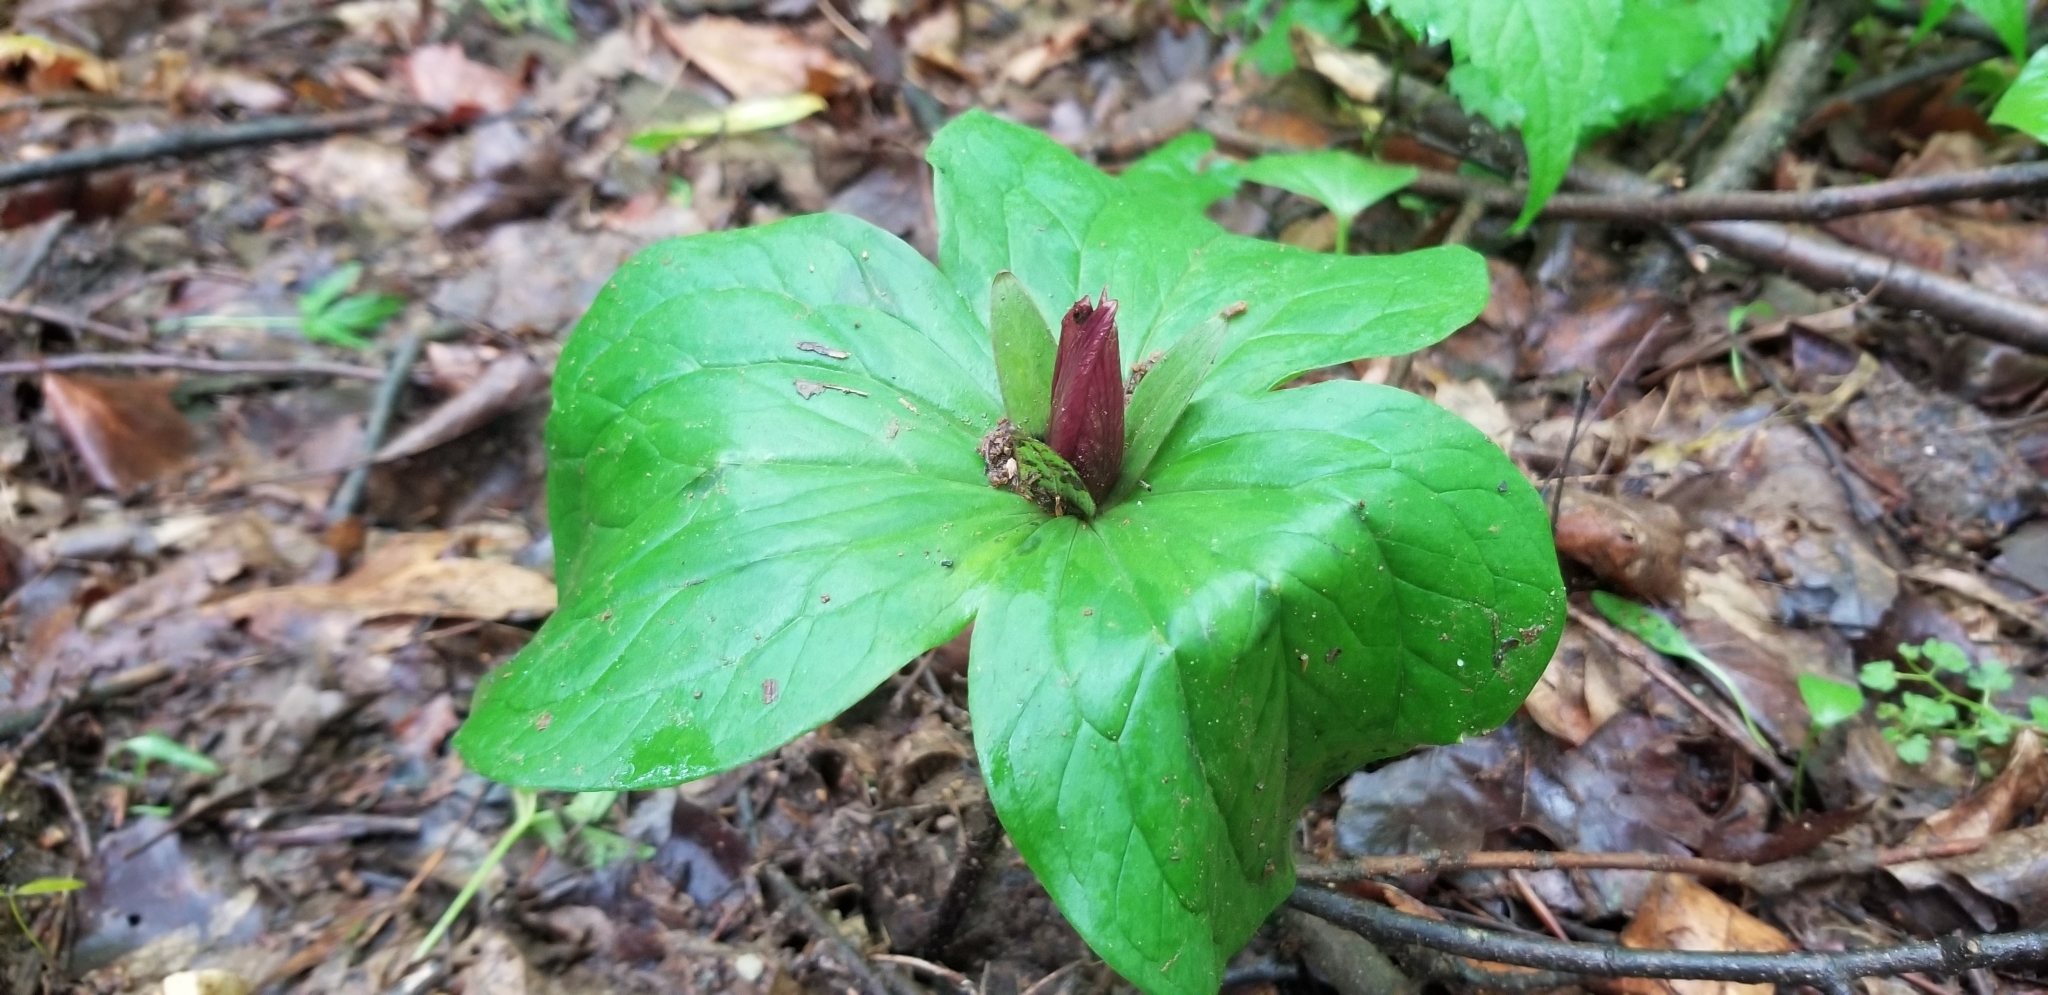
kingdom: Plantae
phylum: Tracheophyta
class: Liliopsida
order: Liliales
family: Melanthiaceae
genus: Trillium
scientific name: Trillium sessile
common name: Sessile trillium
